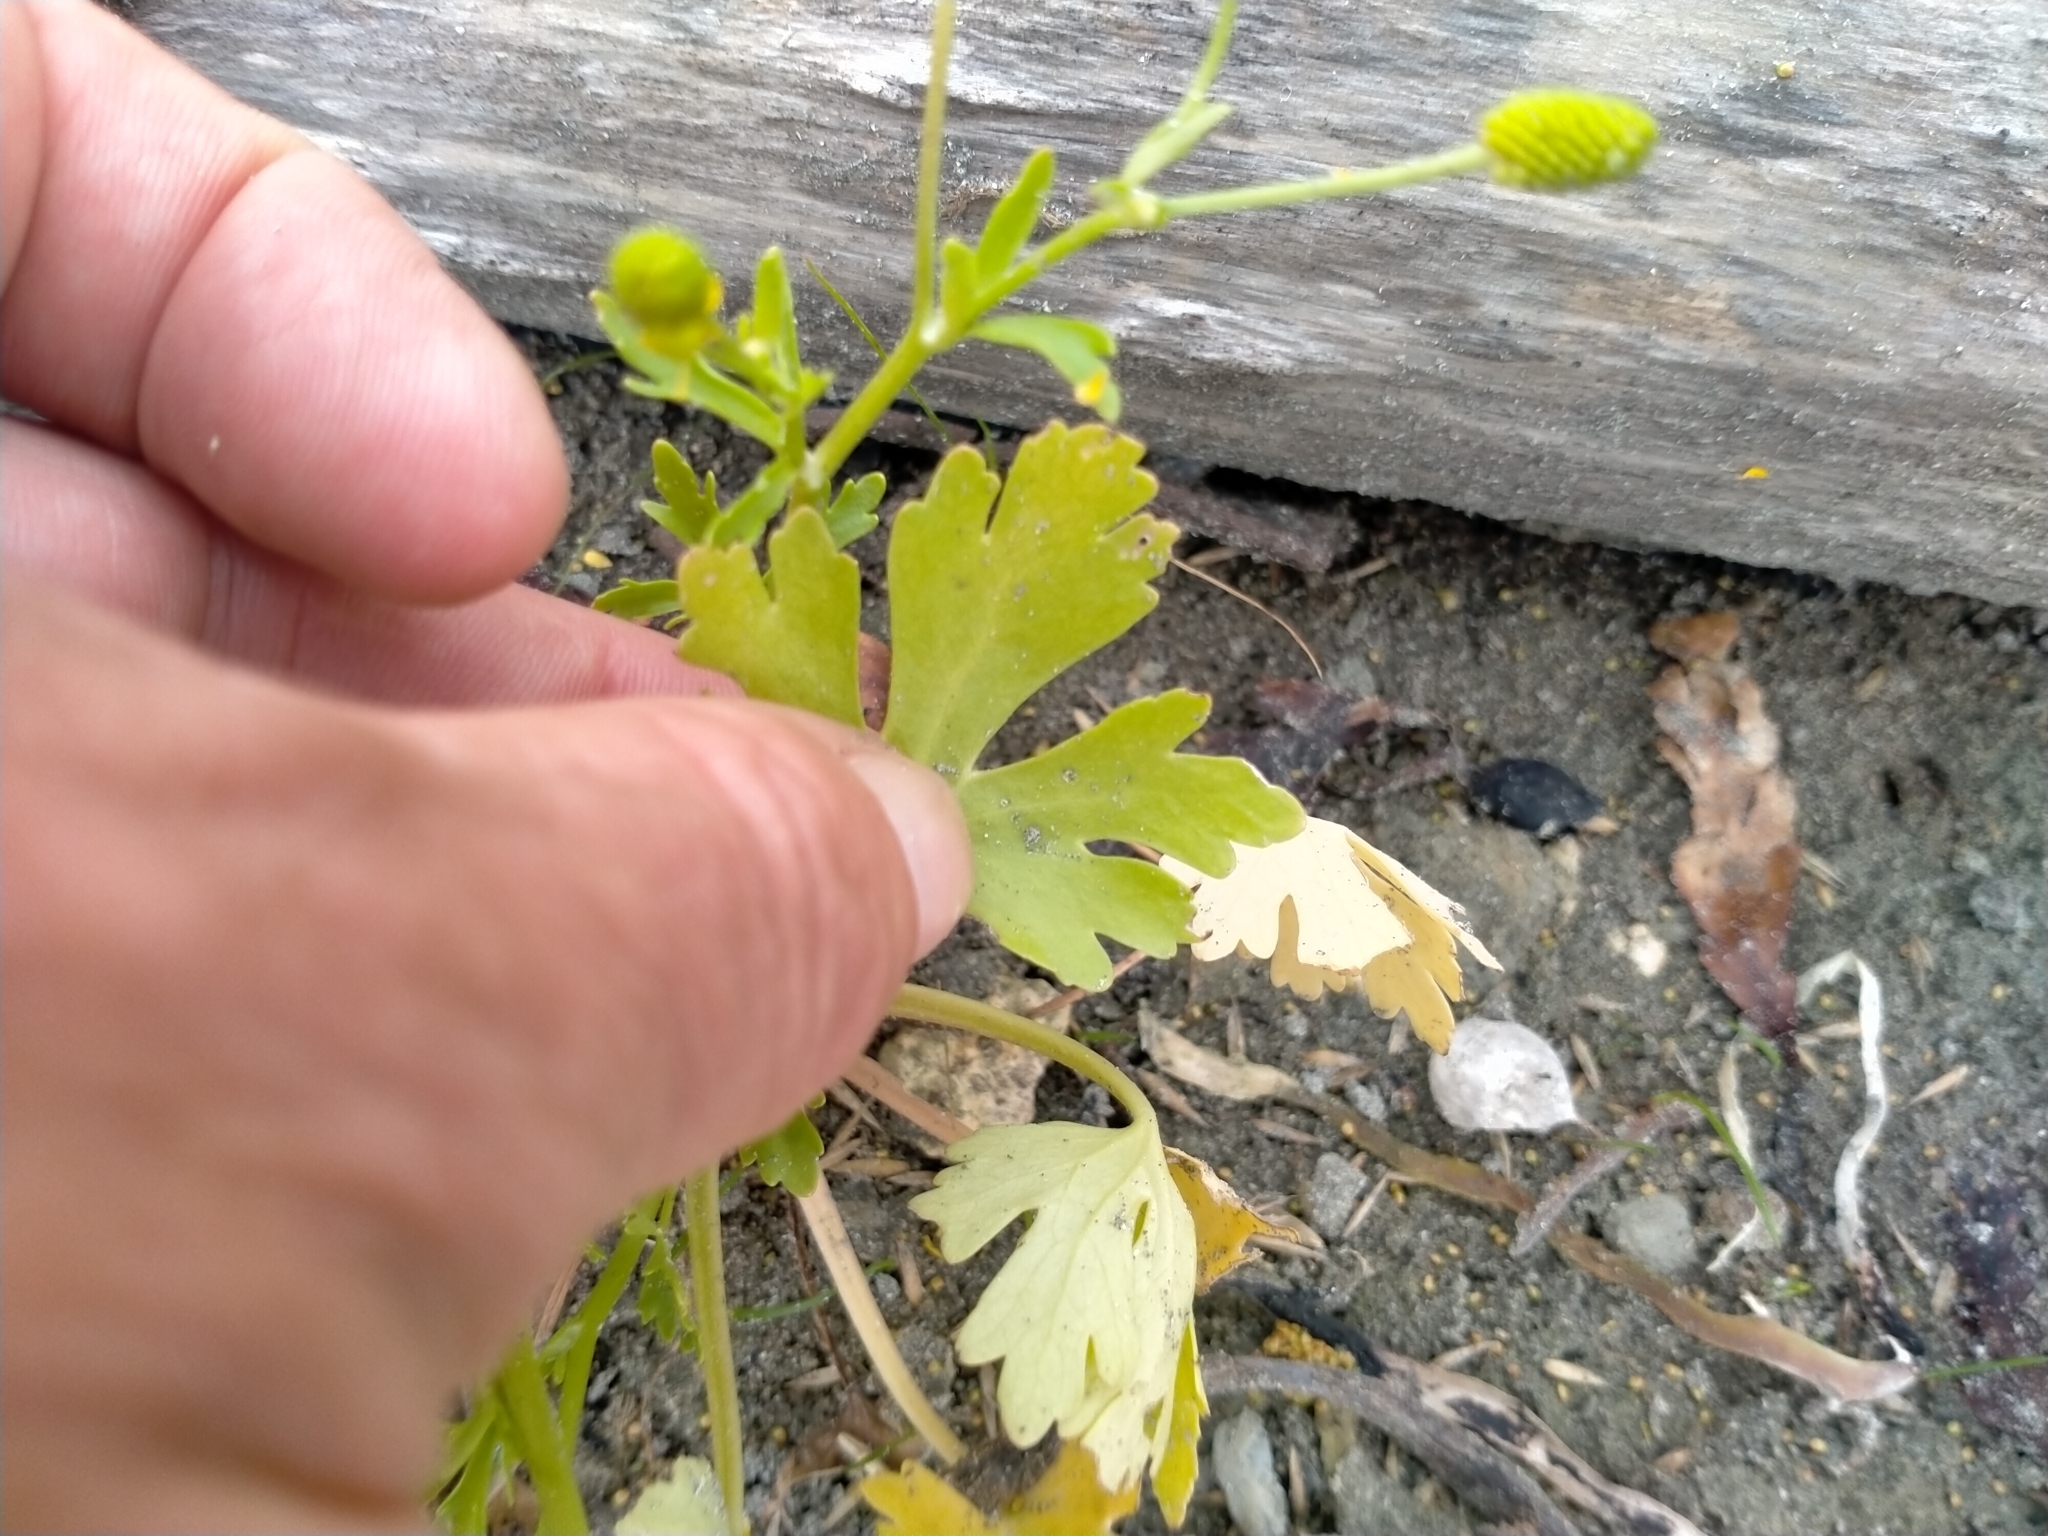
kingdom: Plantae
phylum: Tracheophyta
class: Magnoliopsida
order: Ranunculales
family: Ranunculaceae
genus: Ranunculus
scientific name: Ranunculus sceleratus
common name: Celery-leaved buttercup
